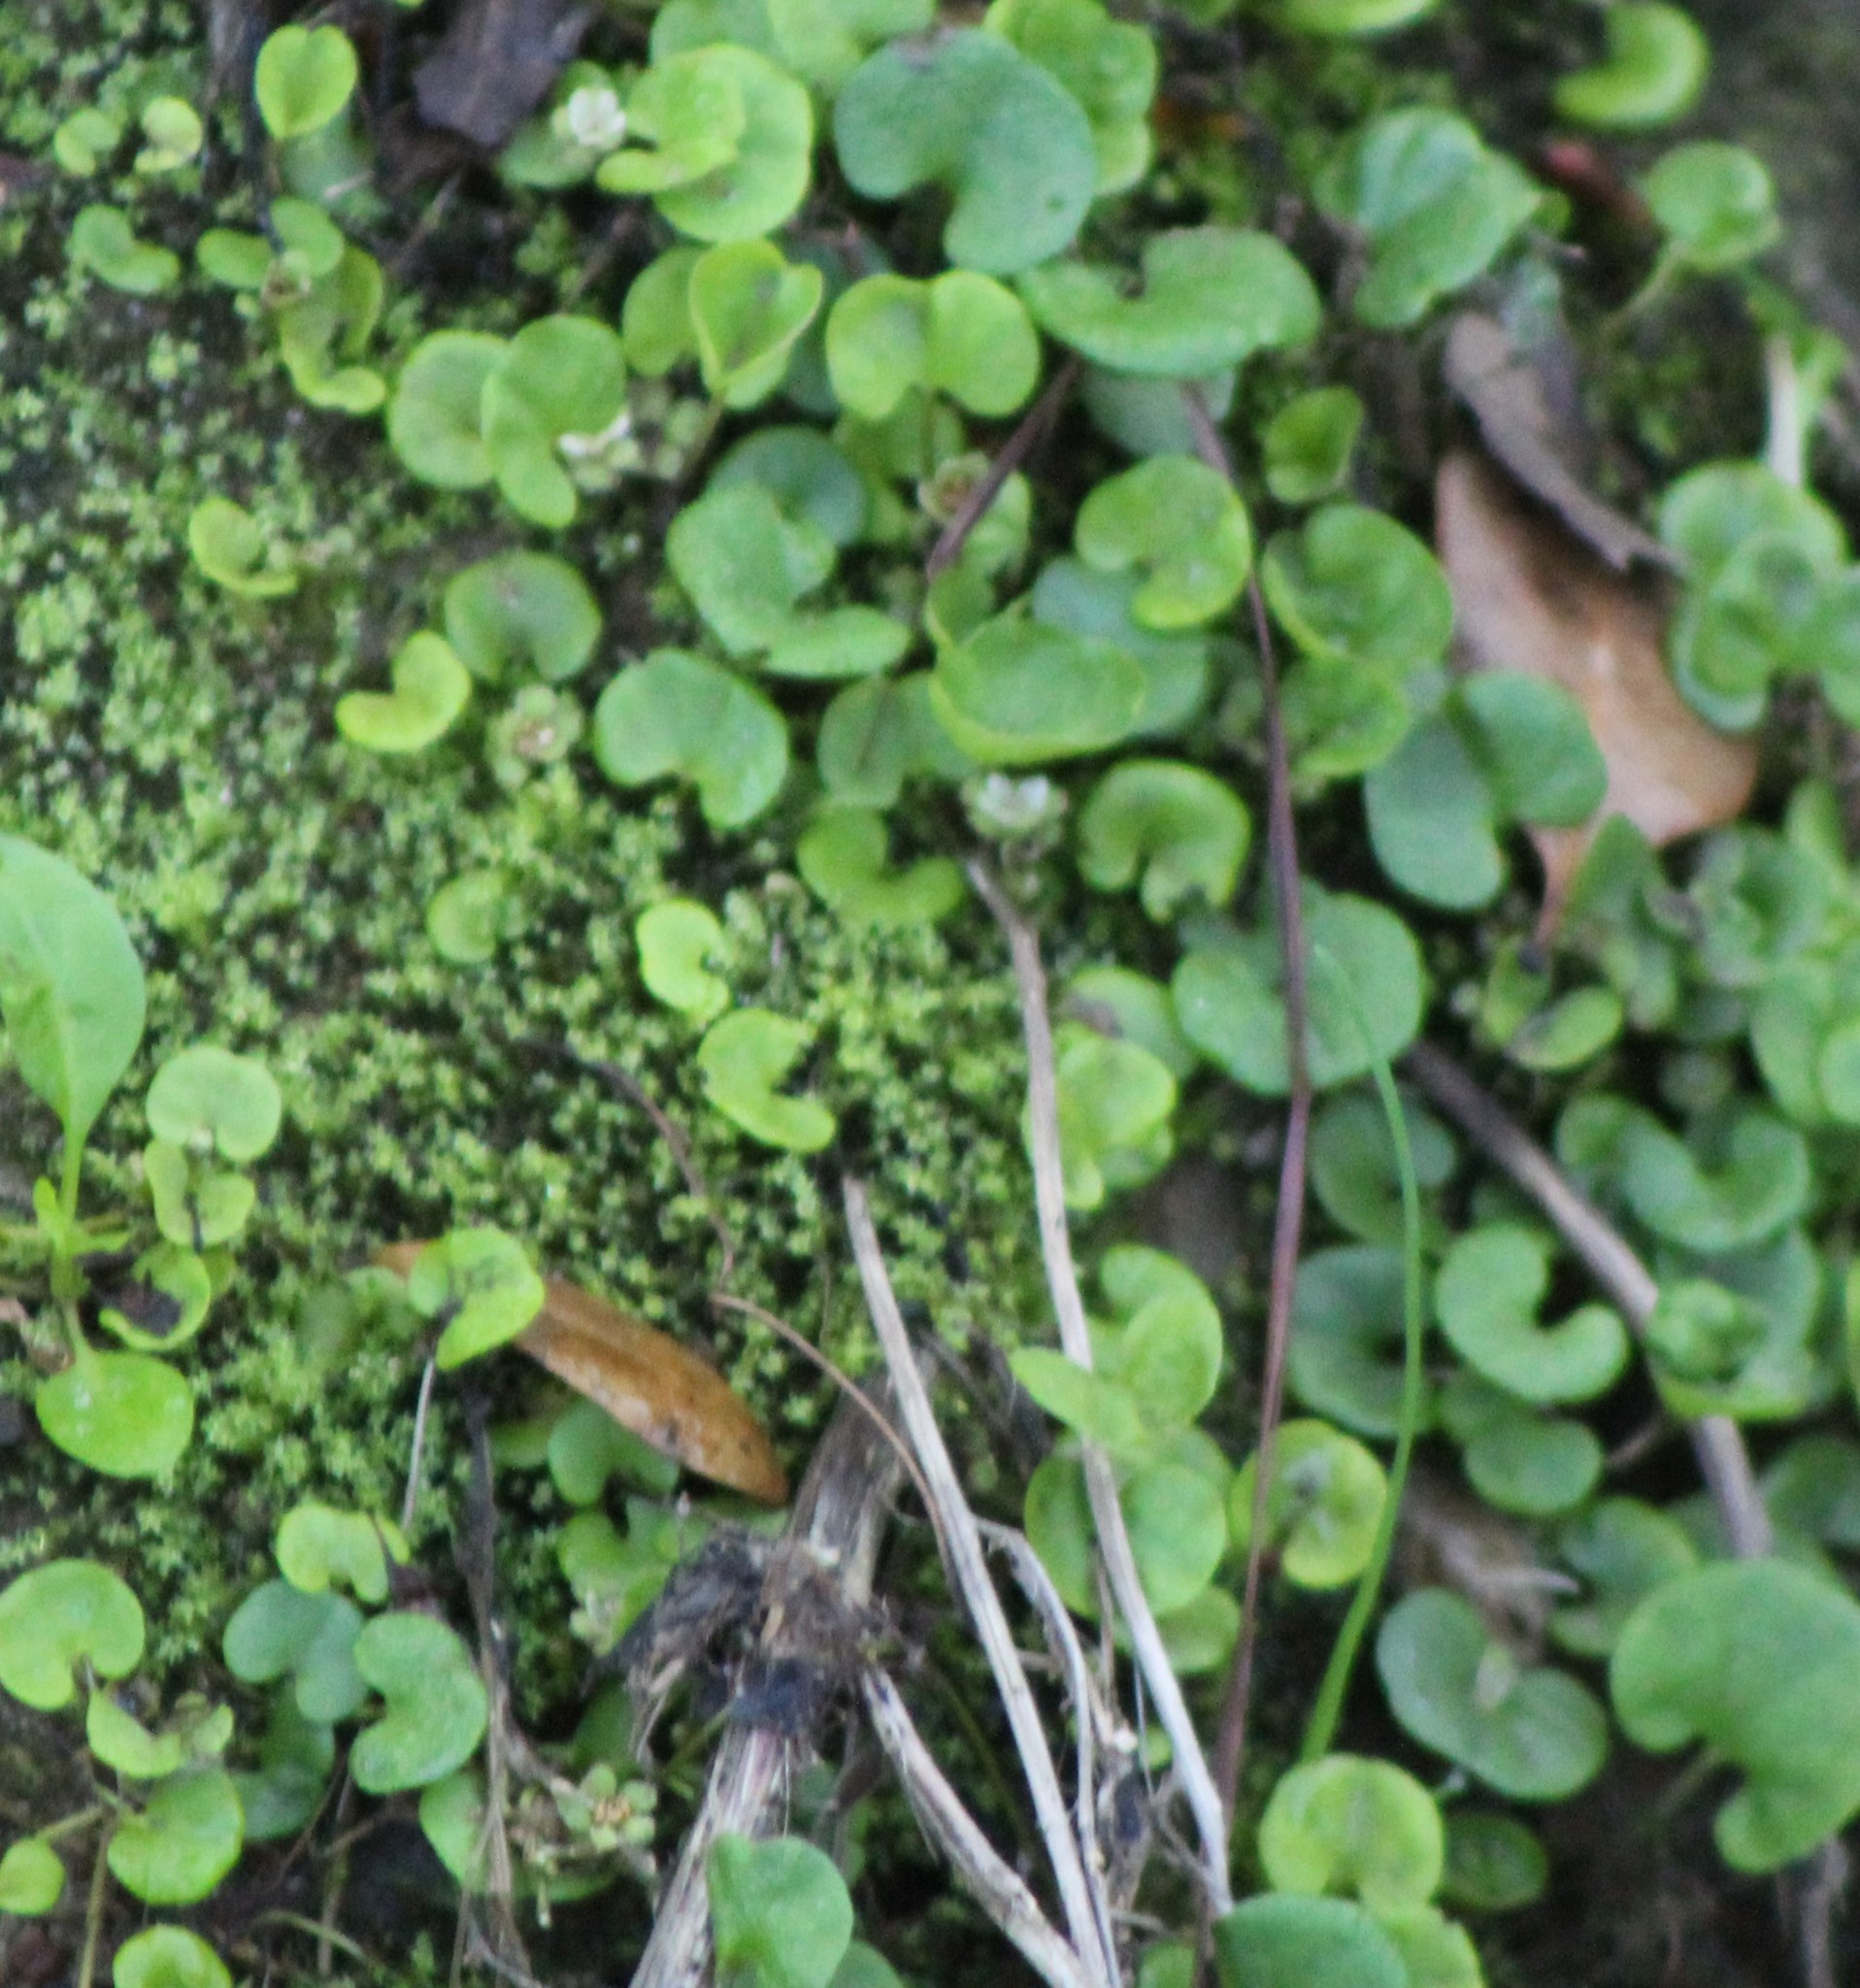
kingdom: Plantae
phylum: Tracheophyta
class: Magnoliopsida
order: Solanales
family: Convolvulaceae
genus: Dichondra
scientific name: Dichondra carolinensis
